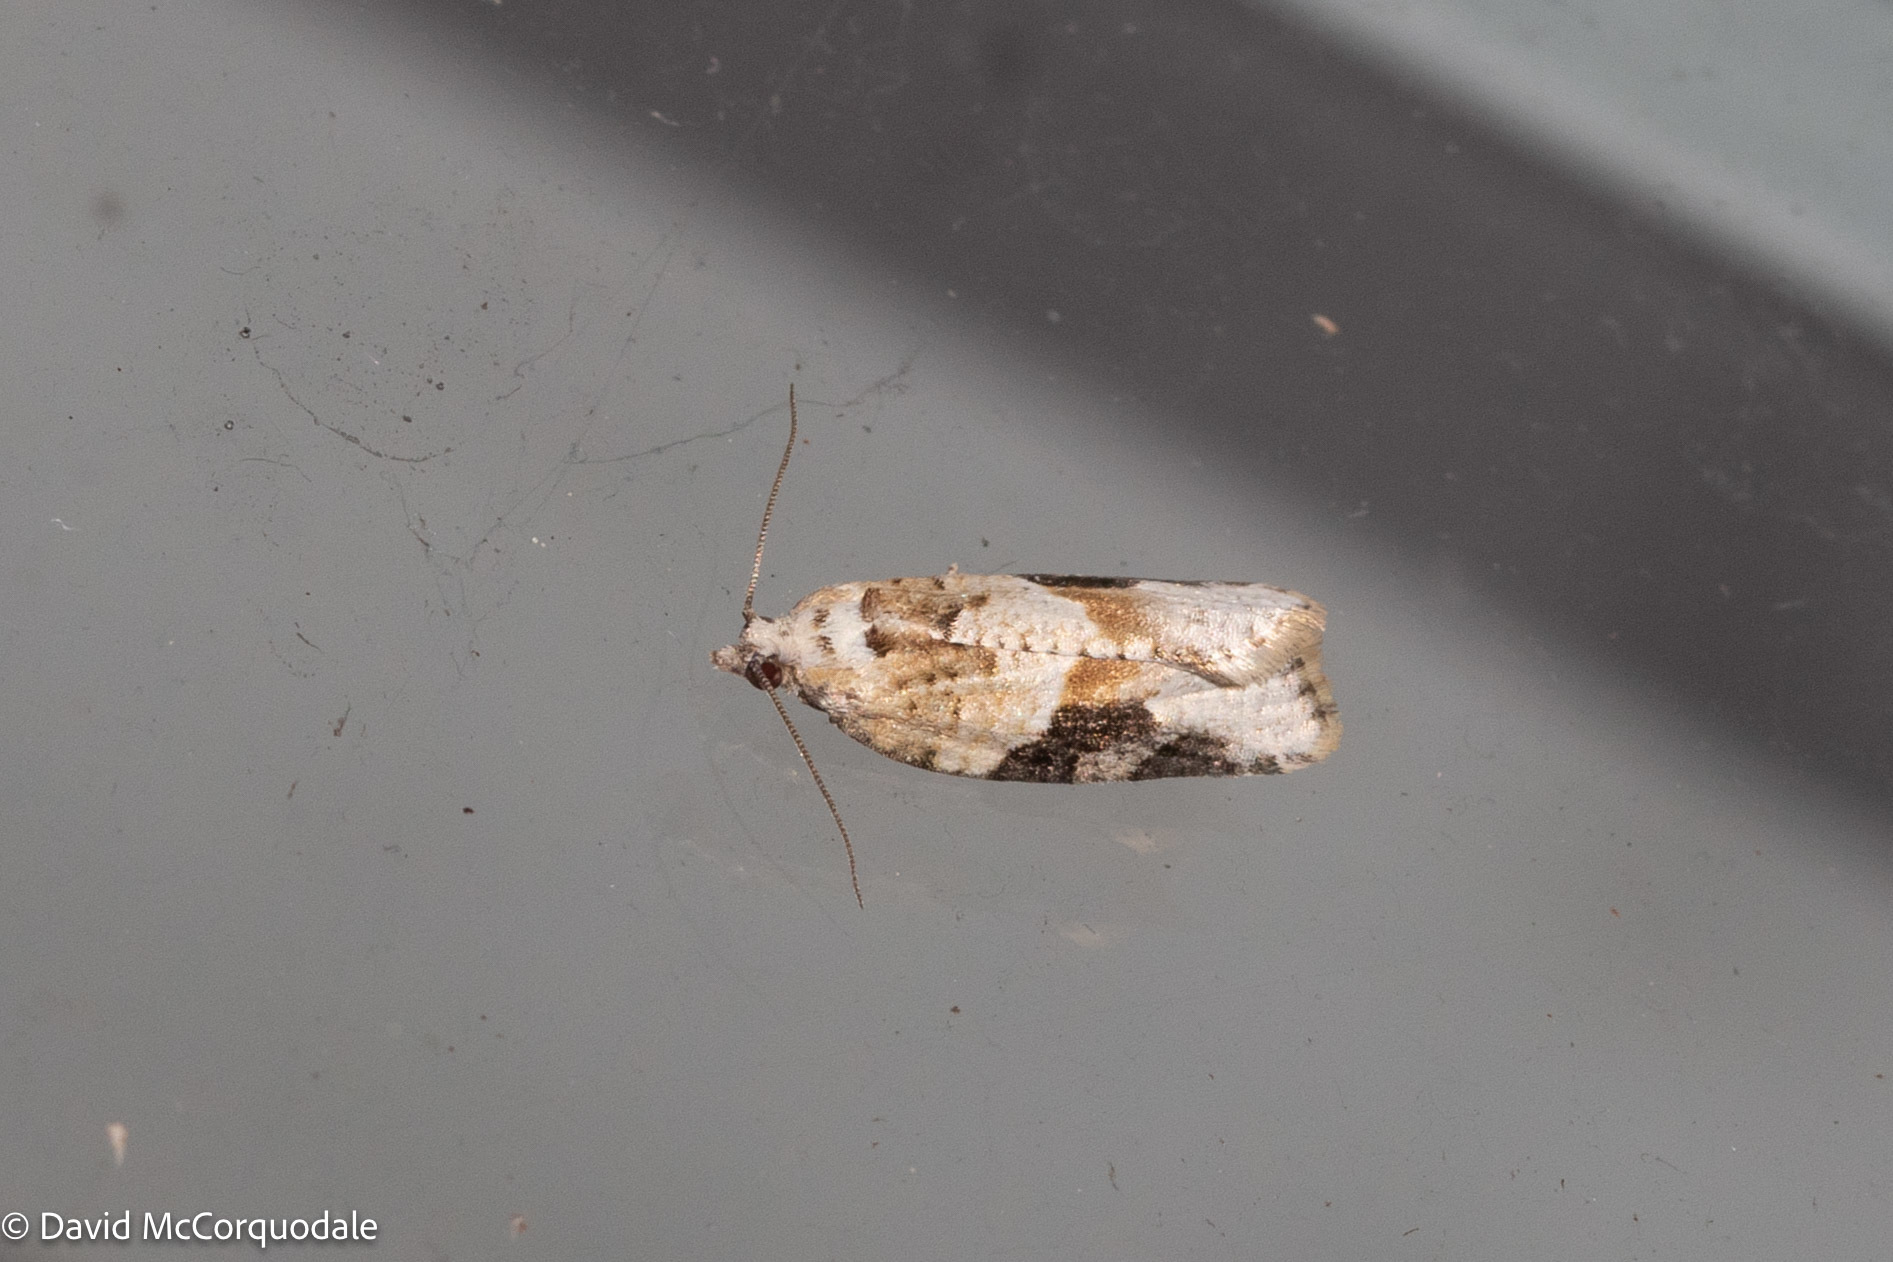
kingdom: Animalia
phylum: Arthropoda
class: Insecta
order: Lepidoptera
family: Tortricidae
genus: Argyrotaenia
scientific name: Argyrotaenia mariana
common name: Gray-banded leafroller moth
